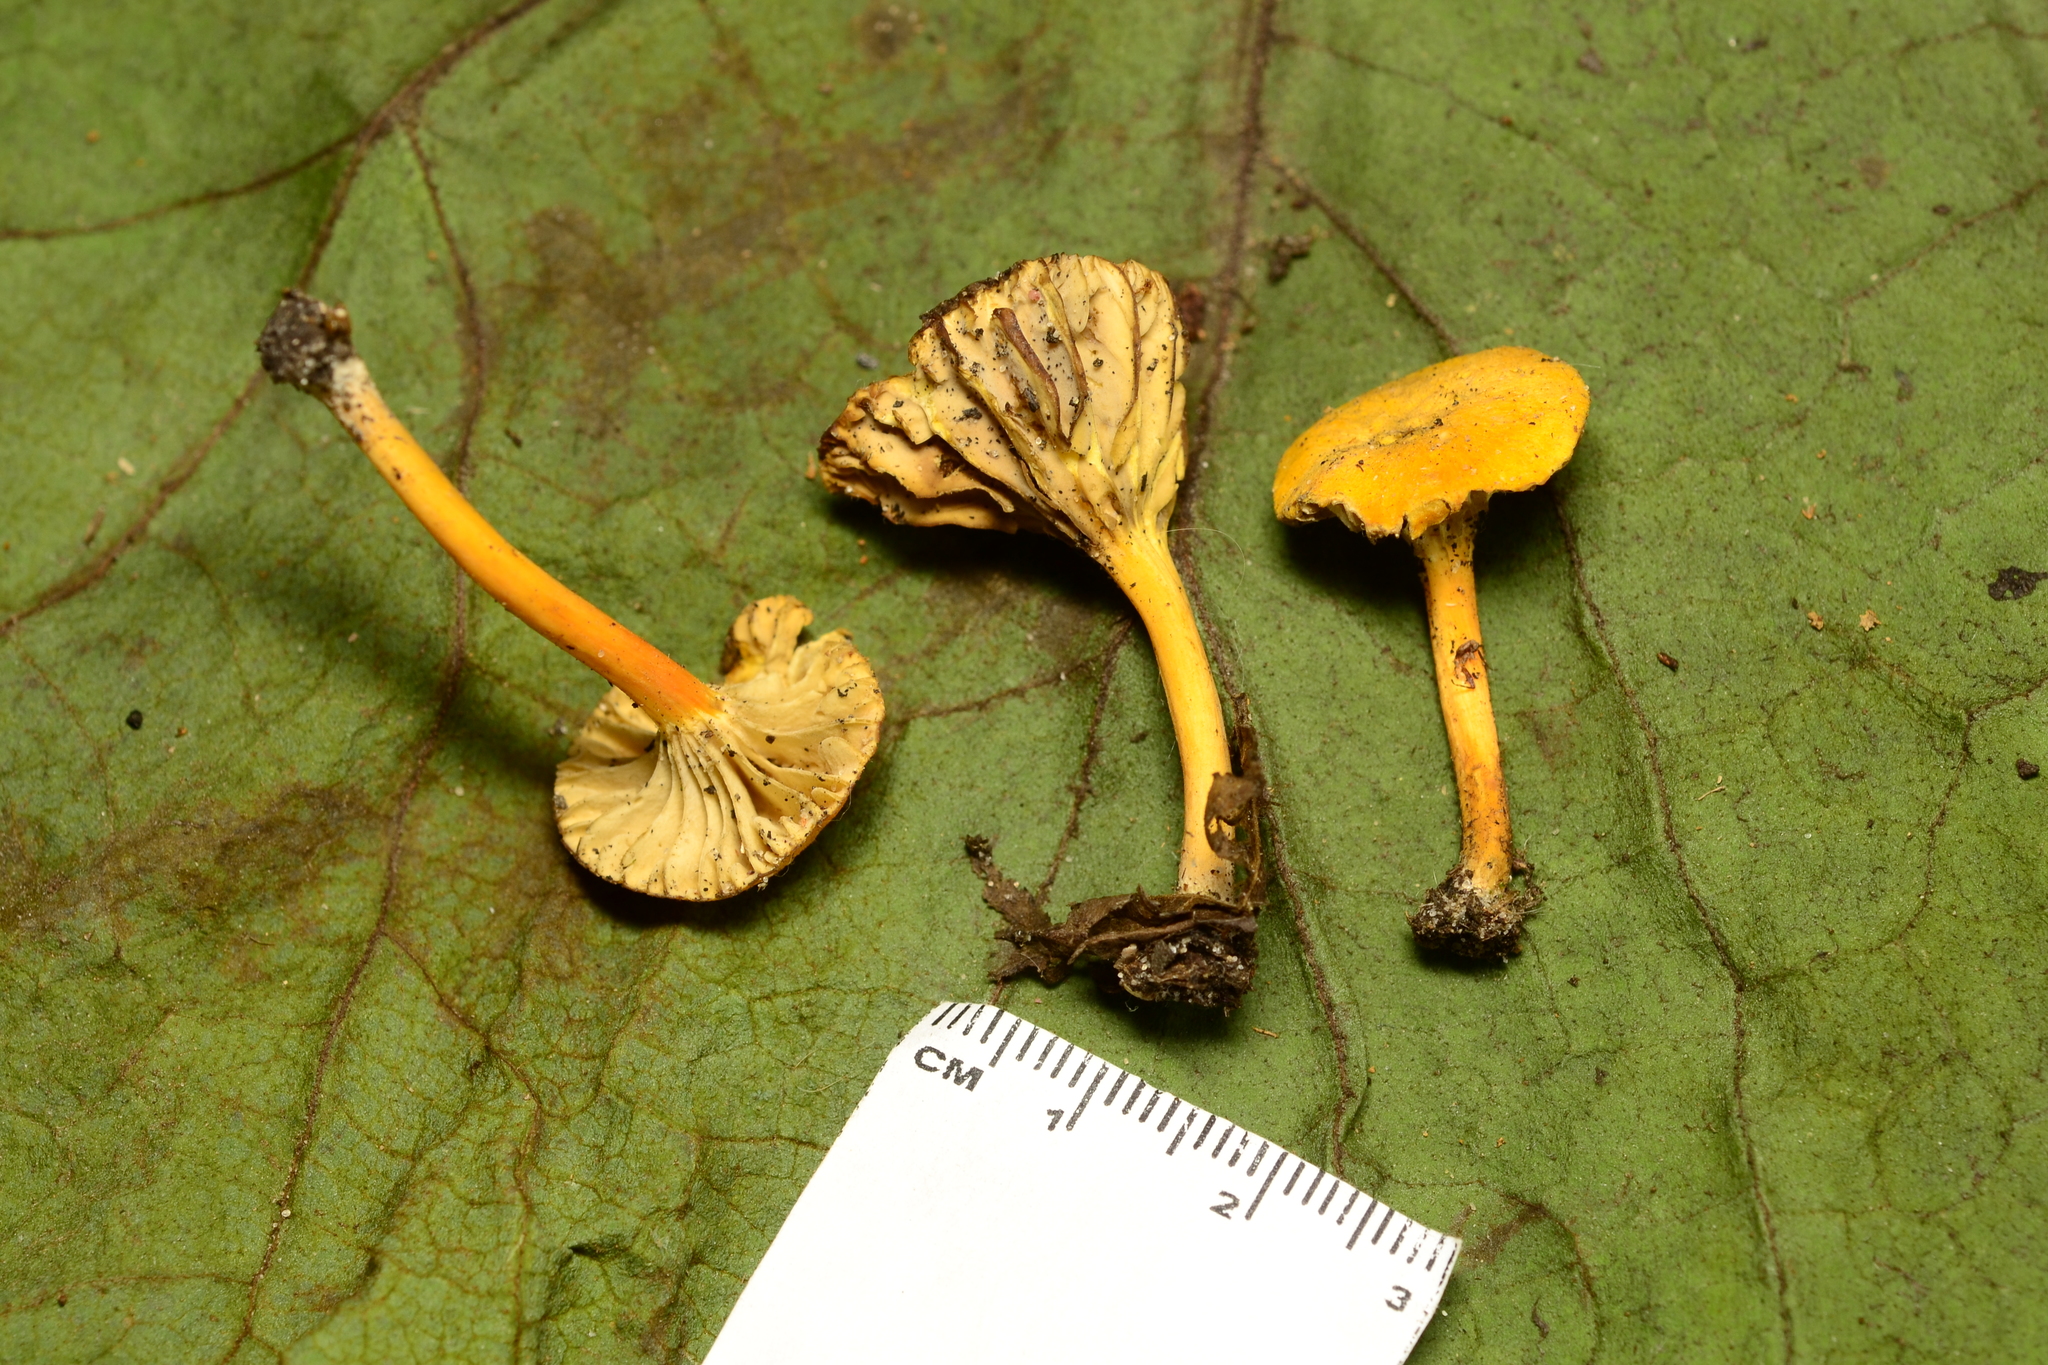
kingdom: Fungi
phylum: Basidiomycota
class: Agaricomycetes
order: Agaricales
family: Hygrophoraceae
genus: Hygrocybe
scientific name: Hygrocybe cantharellus
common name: Goblet waxcap
